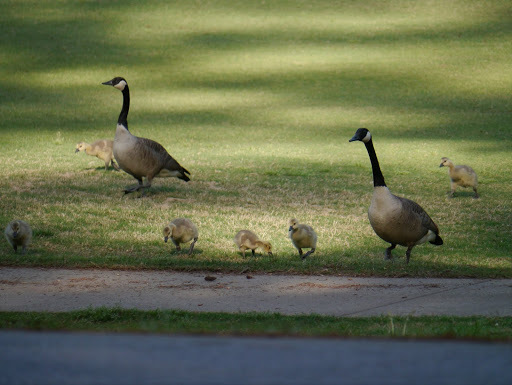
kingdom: Animalia
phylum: Chordata
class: Aves
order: Anseriformes
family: Anatidae
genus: Branta
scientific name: Branta canadensis
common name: Canada goose
